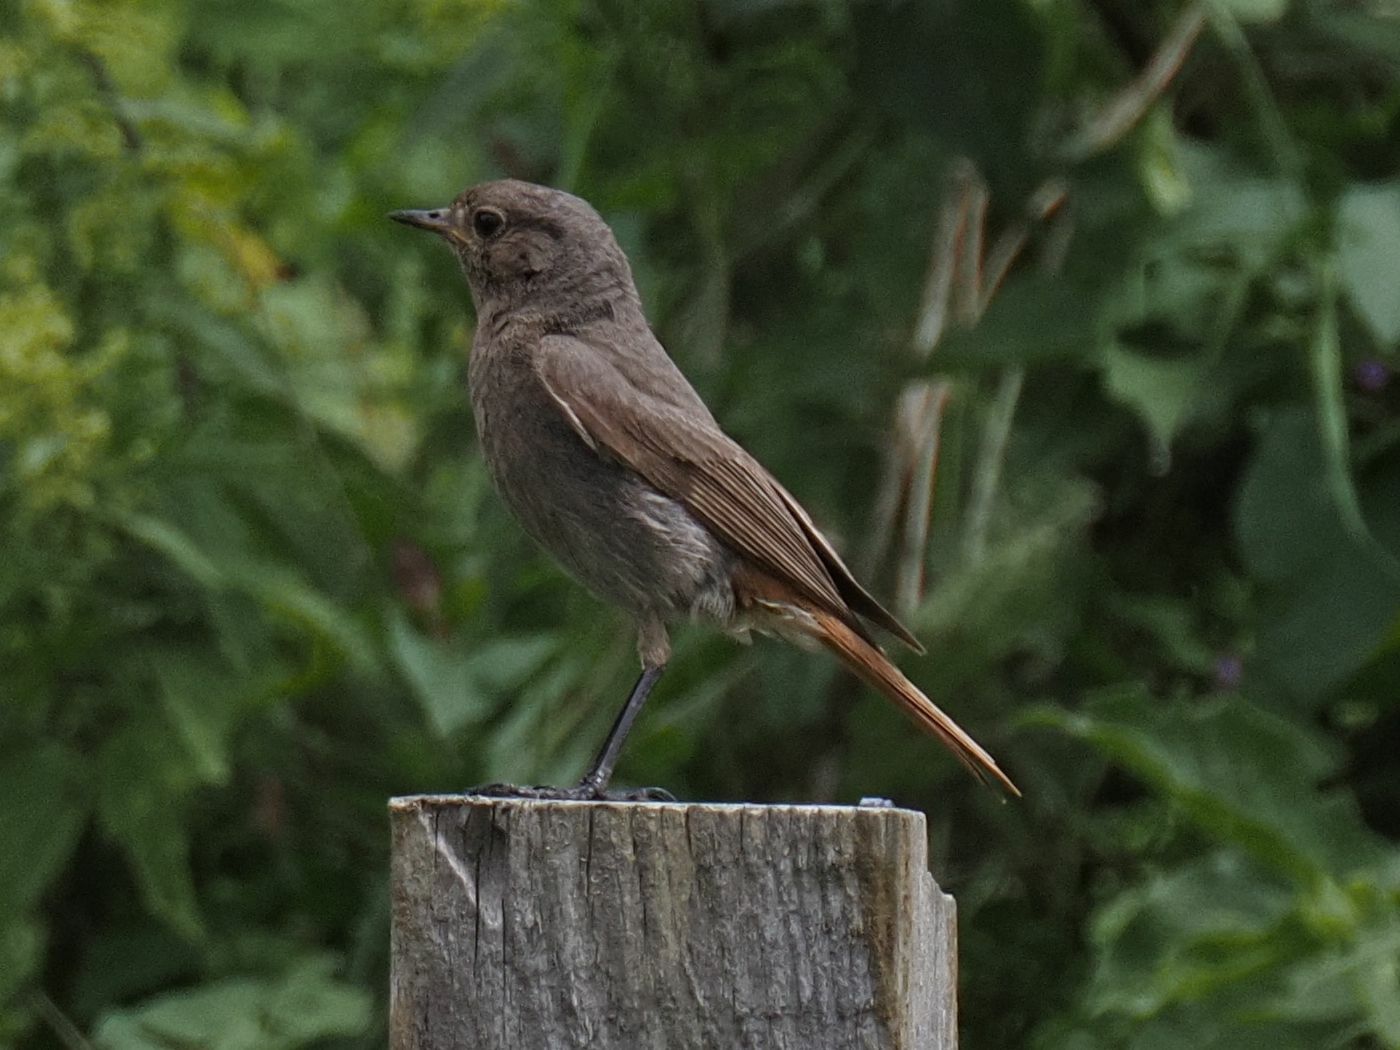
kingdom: Animalia
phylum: Chordata
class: Aves
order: Passeriformes
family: Muscicapidae
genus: Phoenicurus
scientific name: Phoenicurus ochruros
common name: Black redstart
